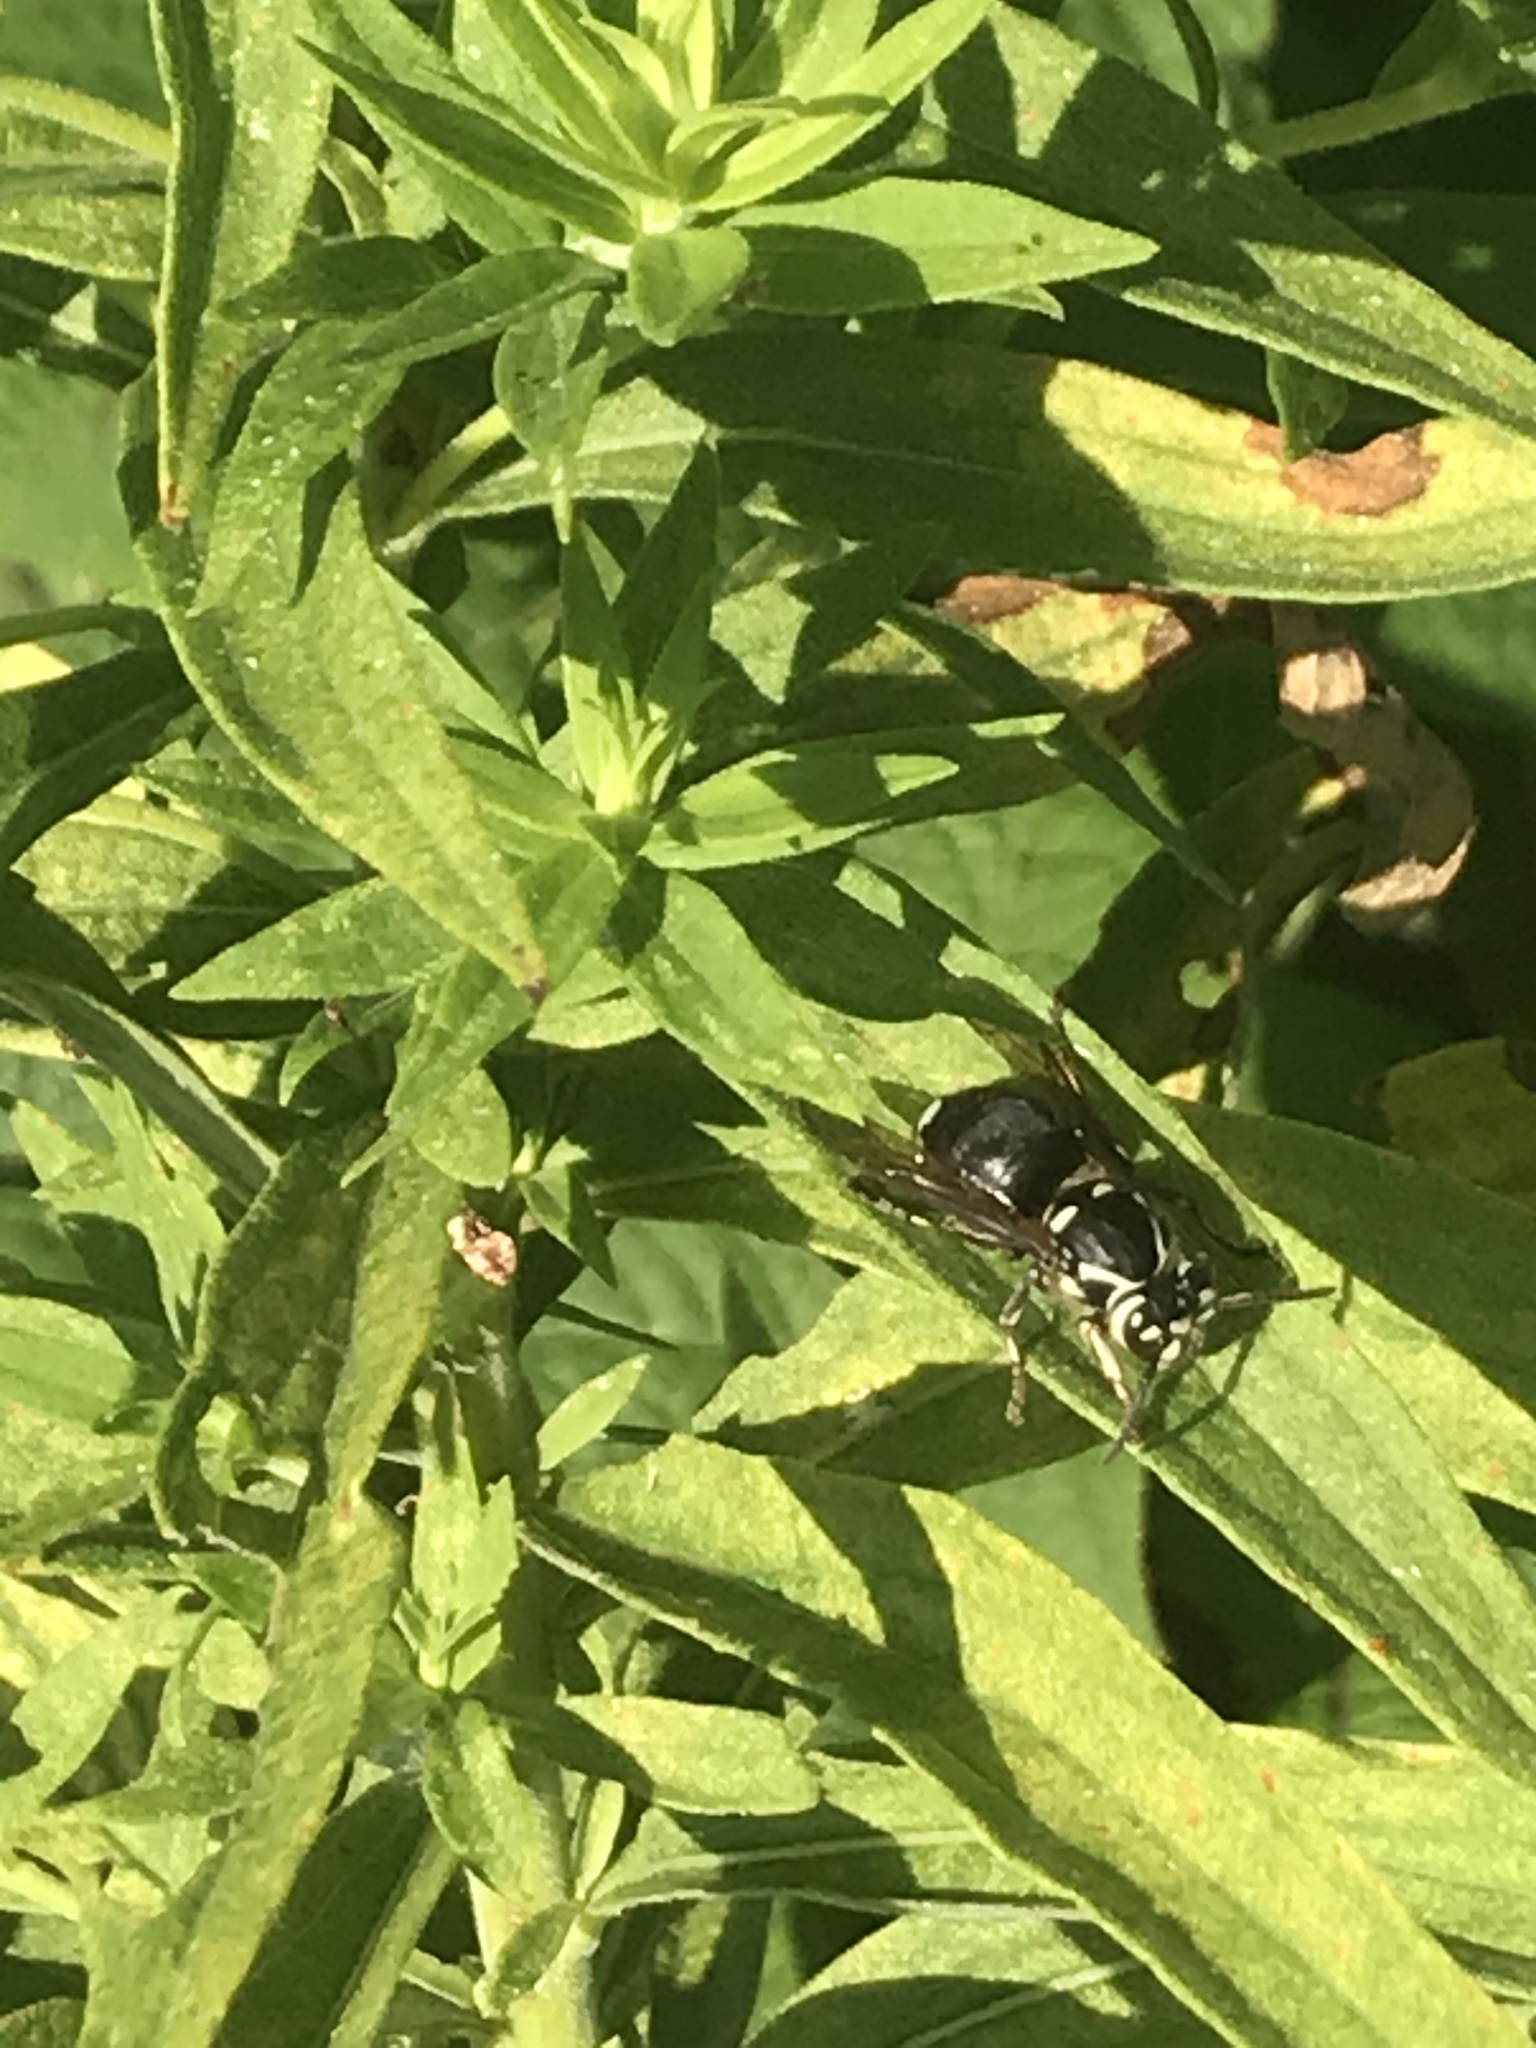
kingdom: Animalia
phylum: Arthropoda
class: Insecta
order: Hymenoptera
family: Vespidae
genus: Dolichovespula
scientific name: Dolichovespula maculata
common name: Bald-faced hornet
